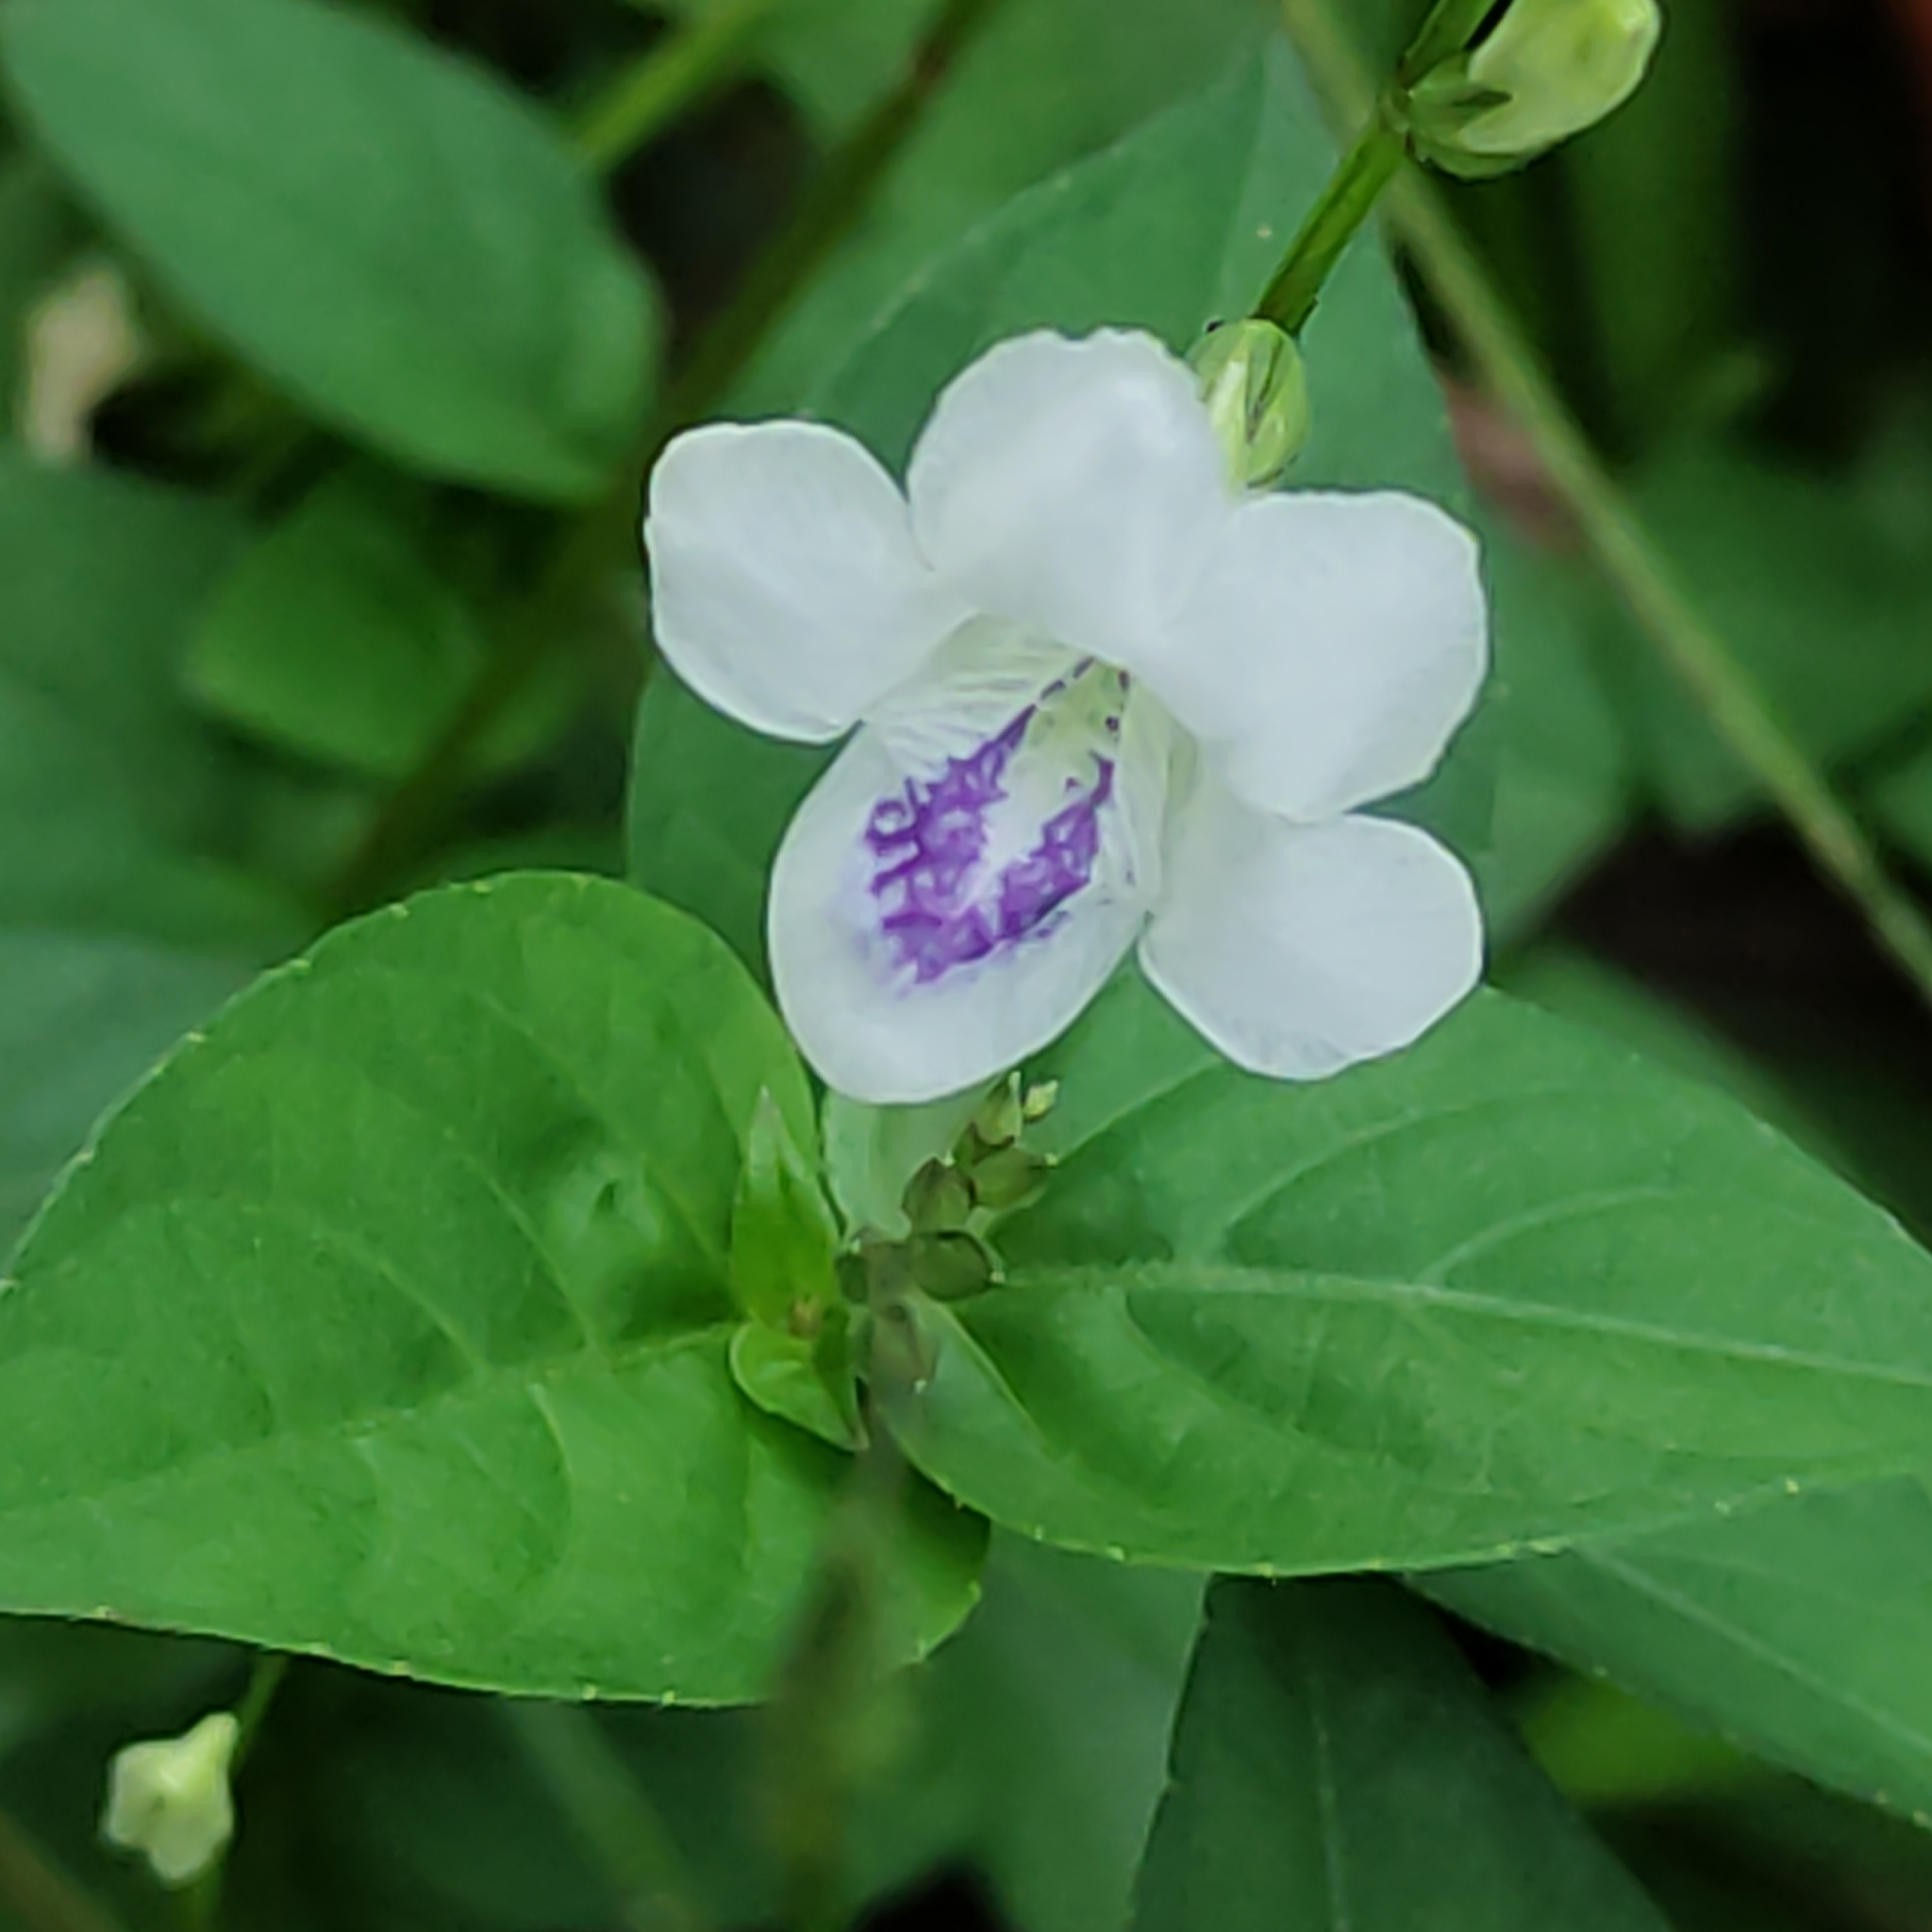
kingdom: Plantae
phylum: Tracheophyta
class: Magnoliopsida
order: Lamiales
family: Acanthaceae
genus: Asystasia
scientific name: Asystasia intrusa
